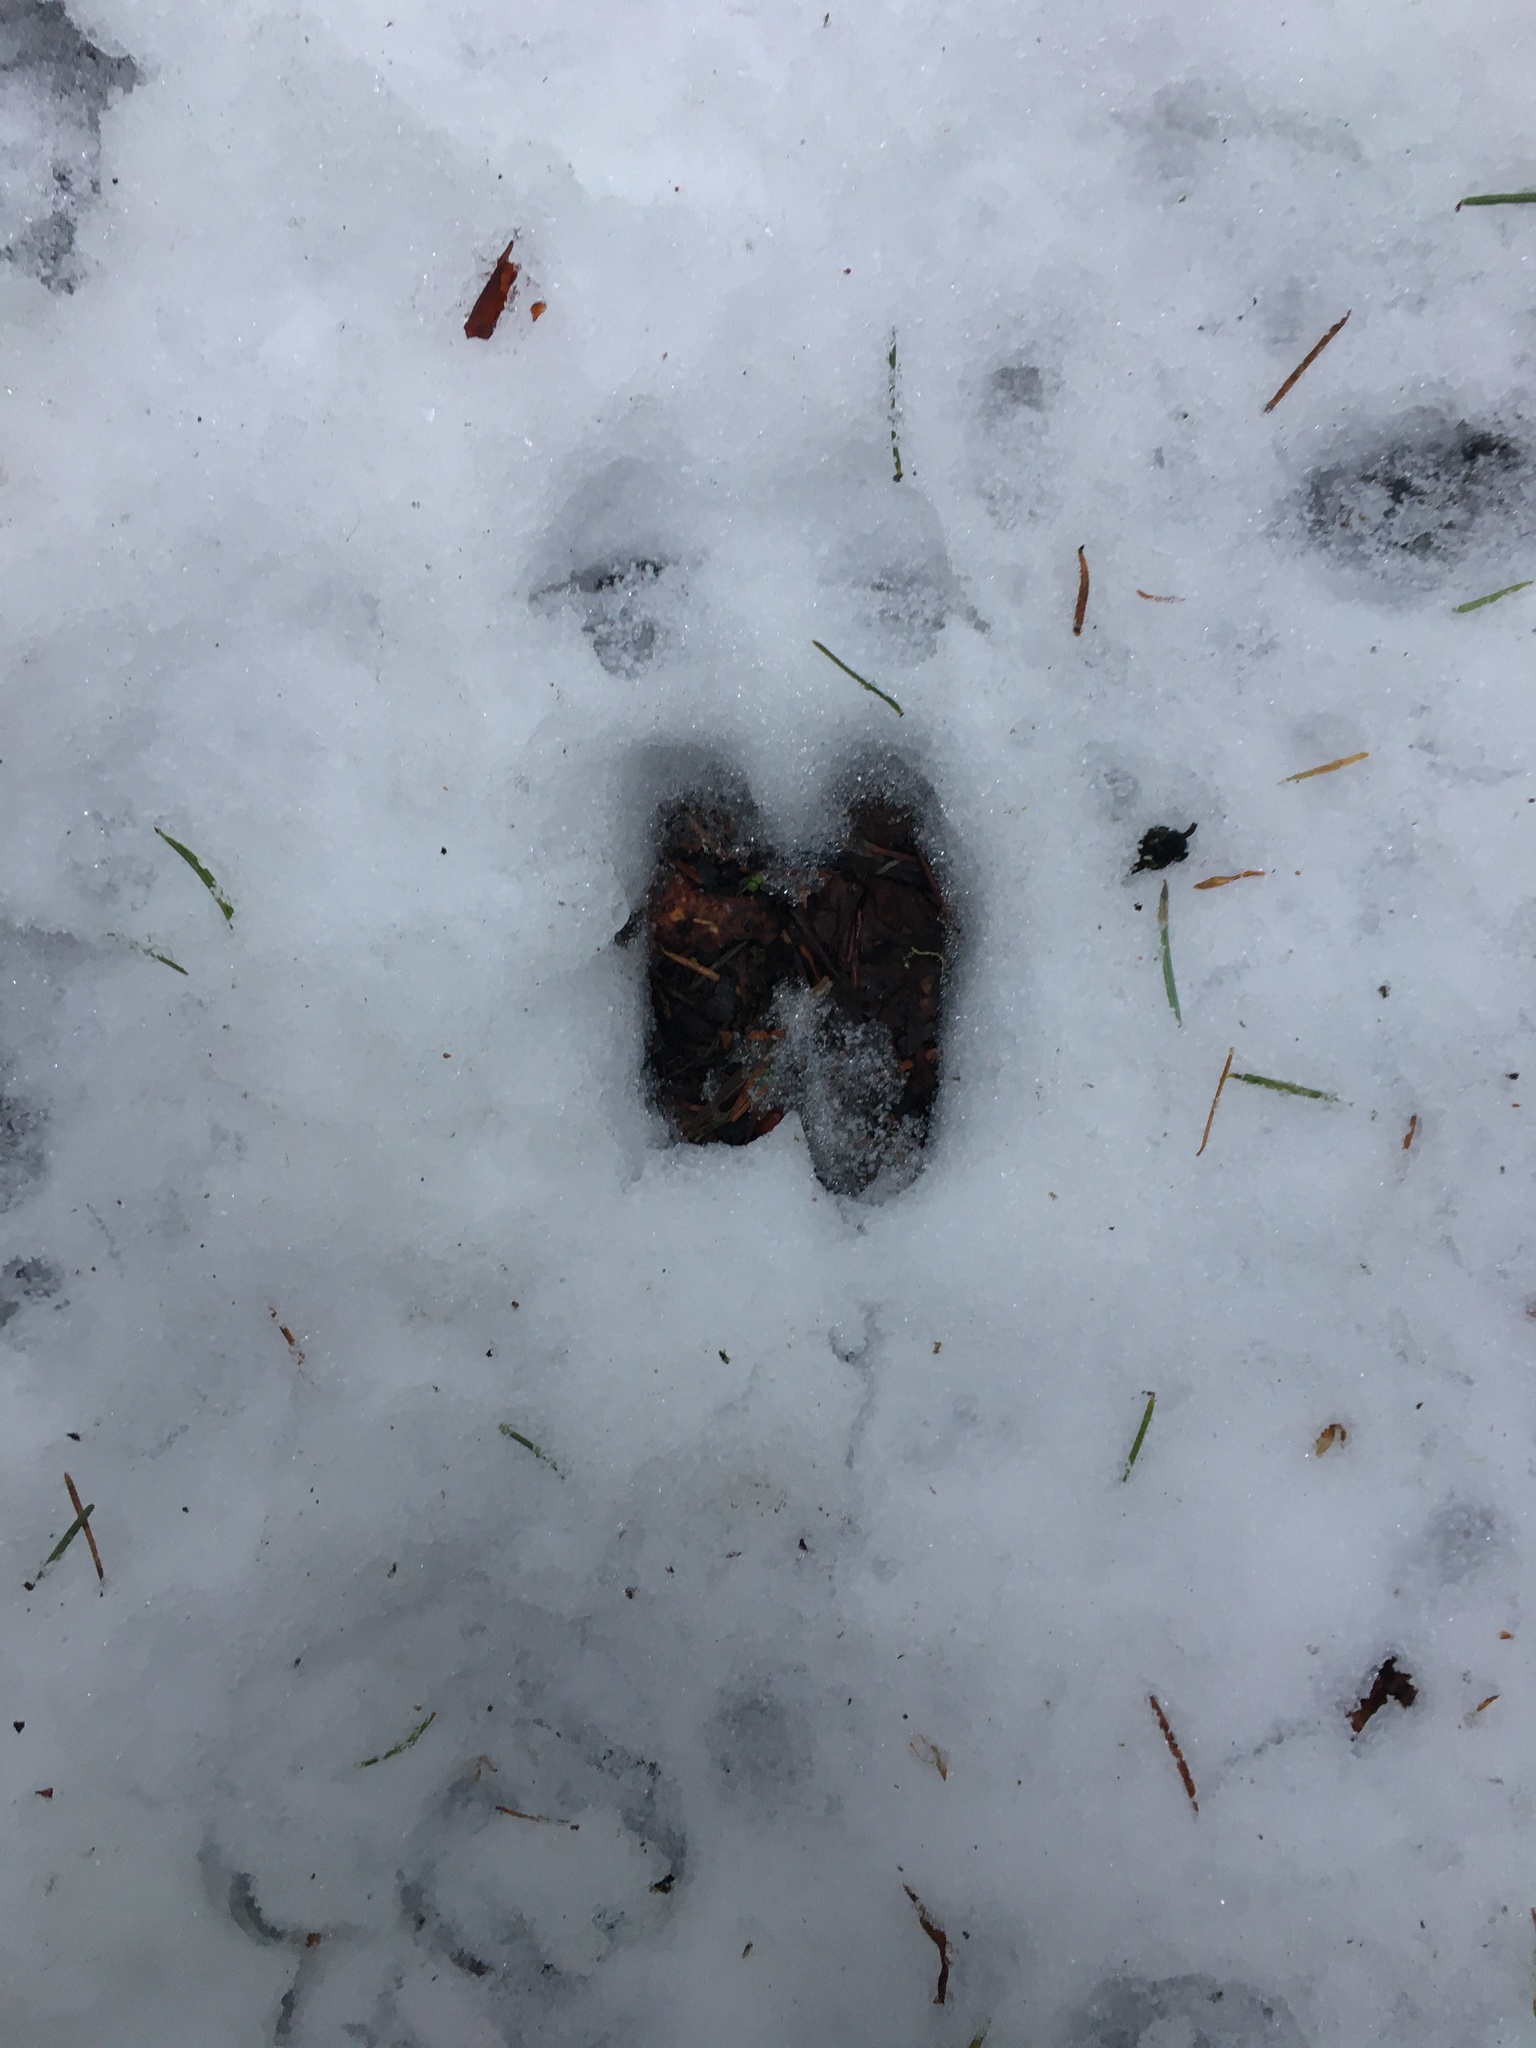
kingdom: Animalia
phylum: Chordata
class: Mammalia
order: Artiodactyla
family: Cervidae
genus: Odocoileus
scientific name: Odocoileus hemionus
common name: Mule deer
